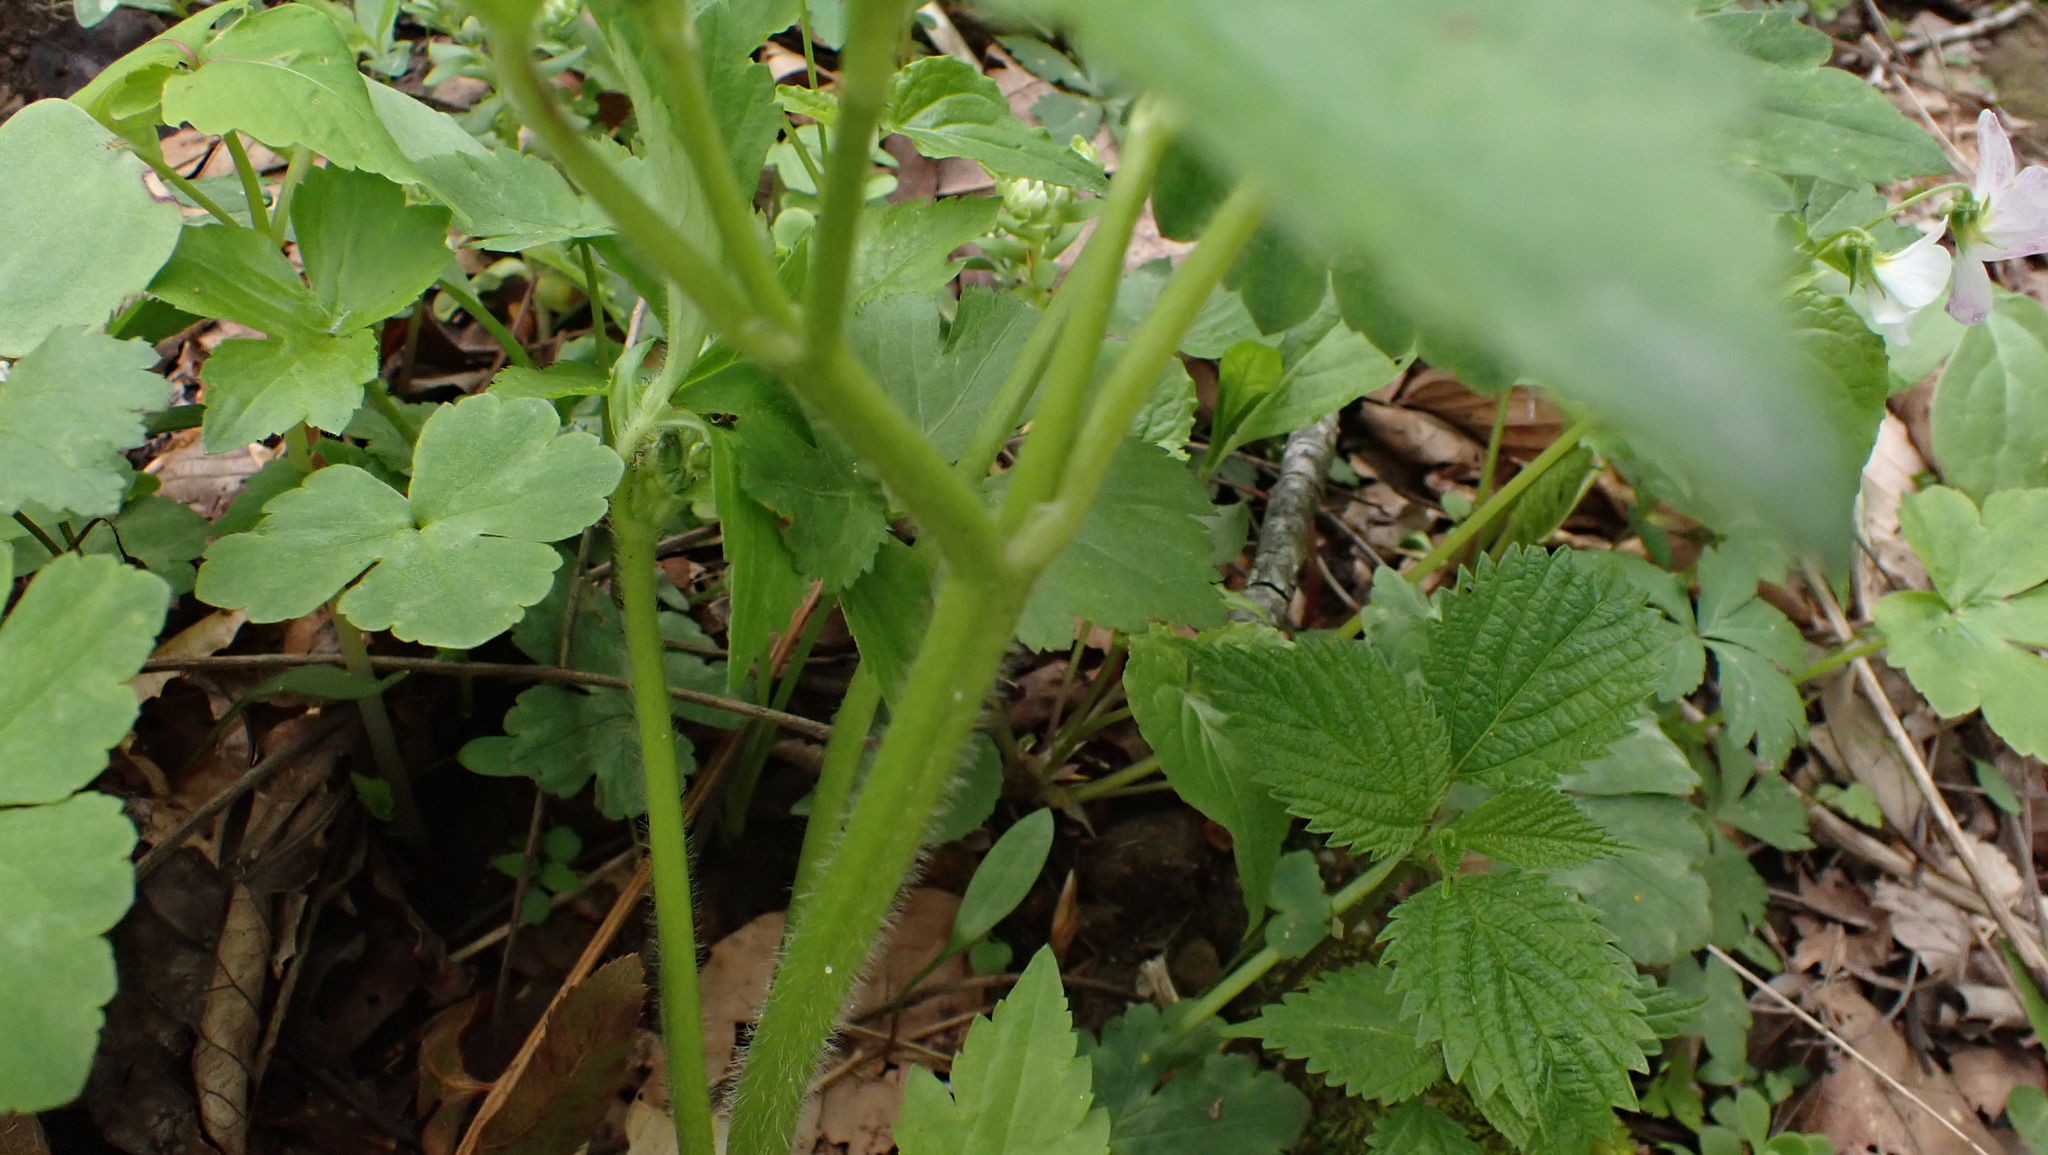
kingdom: Plantae
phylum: Tracheophyta
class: Magnoliopsida
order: Ranunculales
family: Ranunculaceae
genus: Ranunculus
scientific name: Ranunculus recurvatus
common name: Blisterwort
